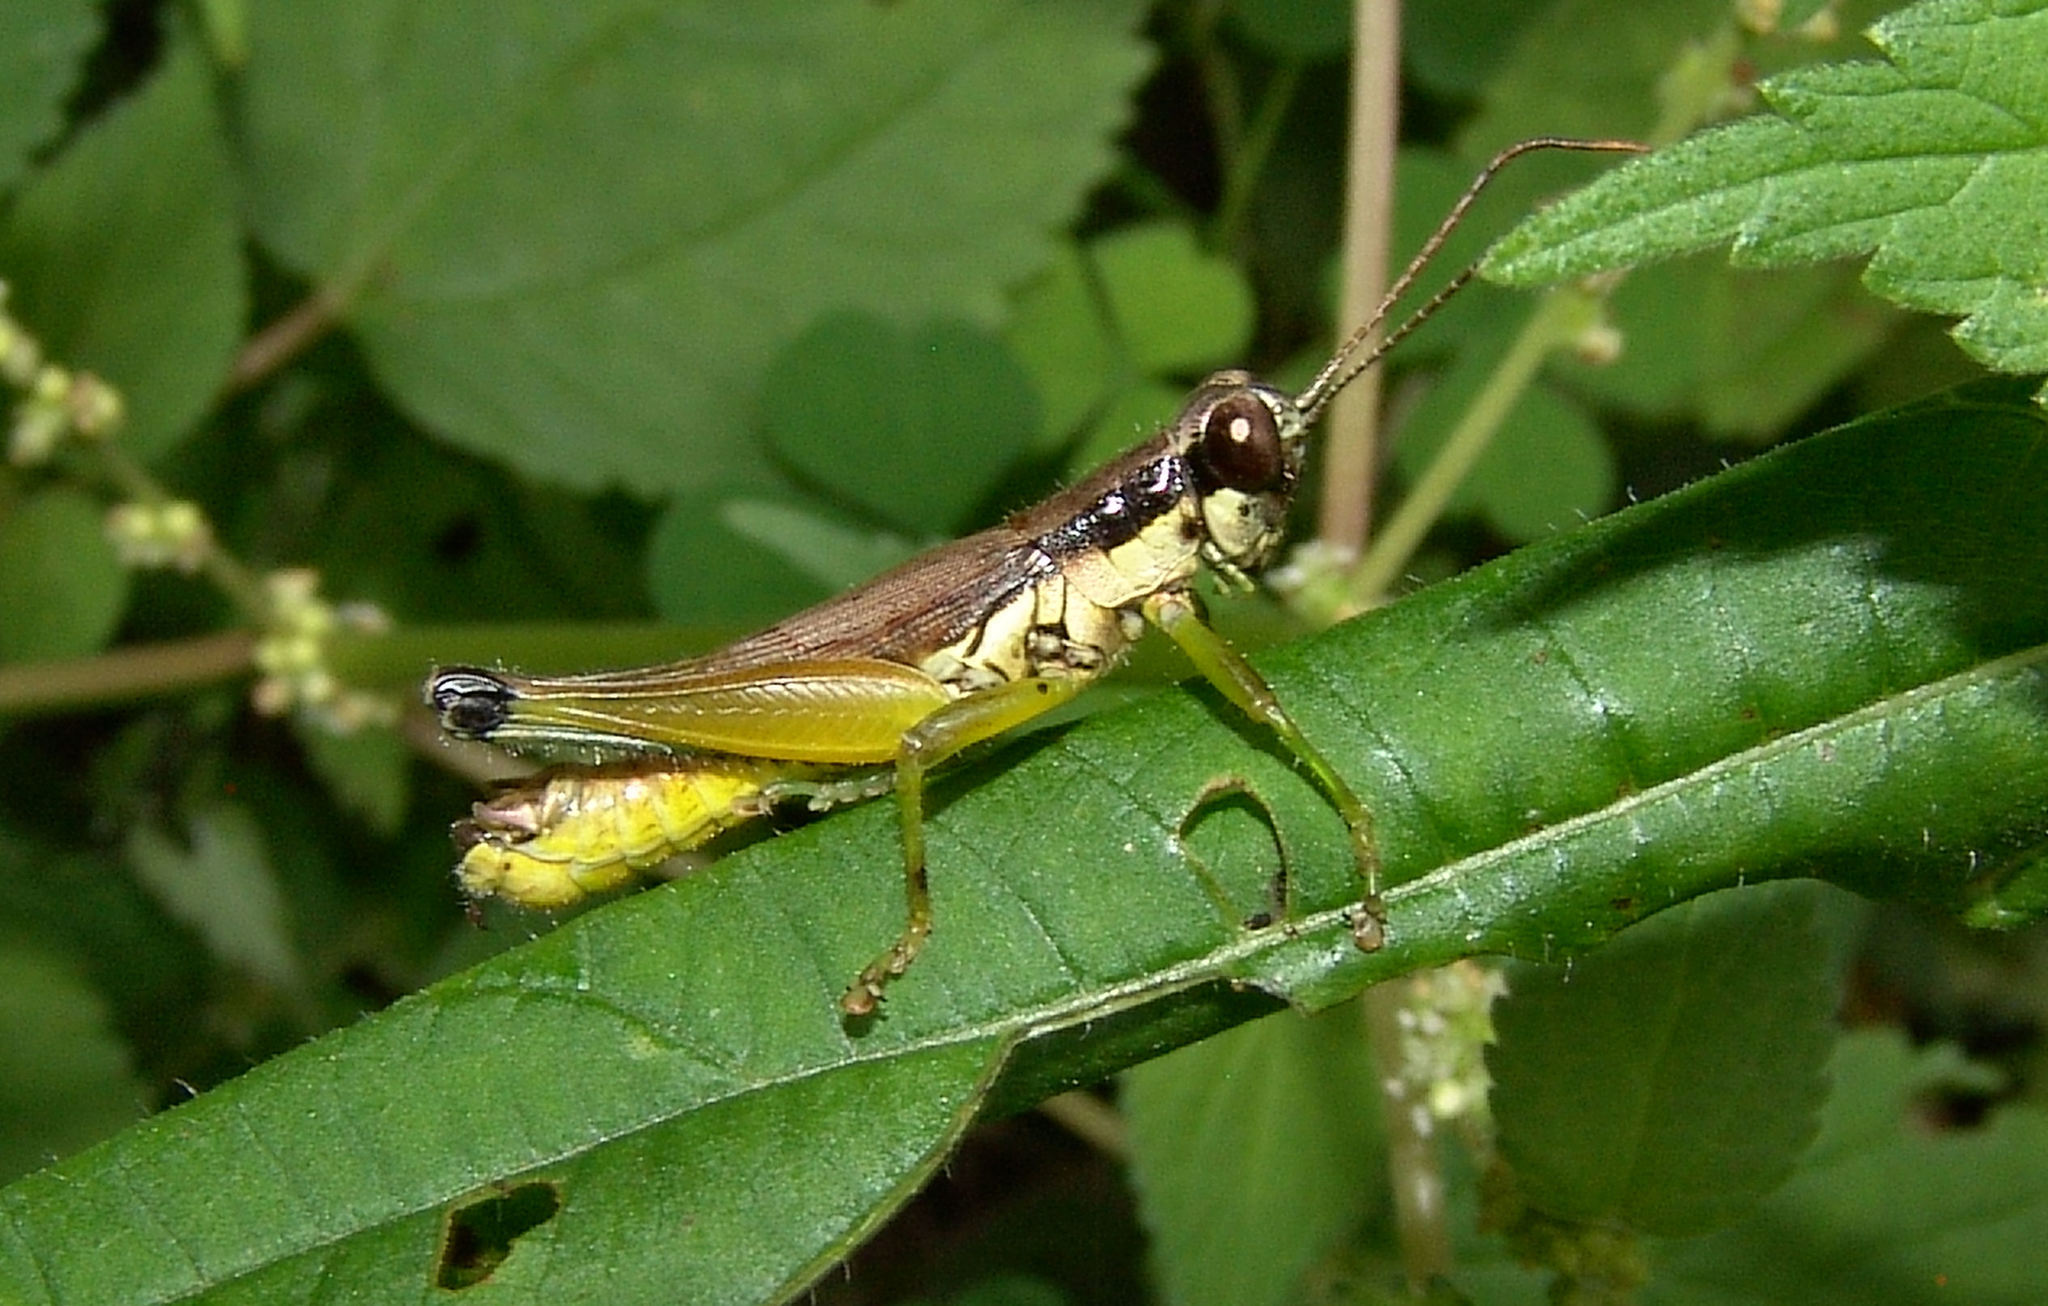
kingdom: Animalia
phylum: Arthropoda
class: Insecta
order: Orthoptera
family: Acrididae
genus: Paroxya
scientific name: Paroxya clavuligera
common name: Olive-green swamp grasshopper
